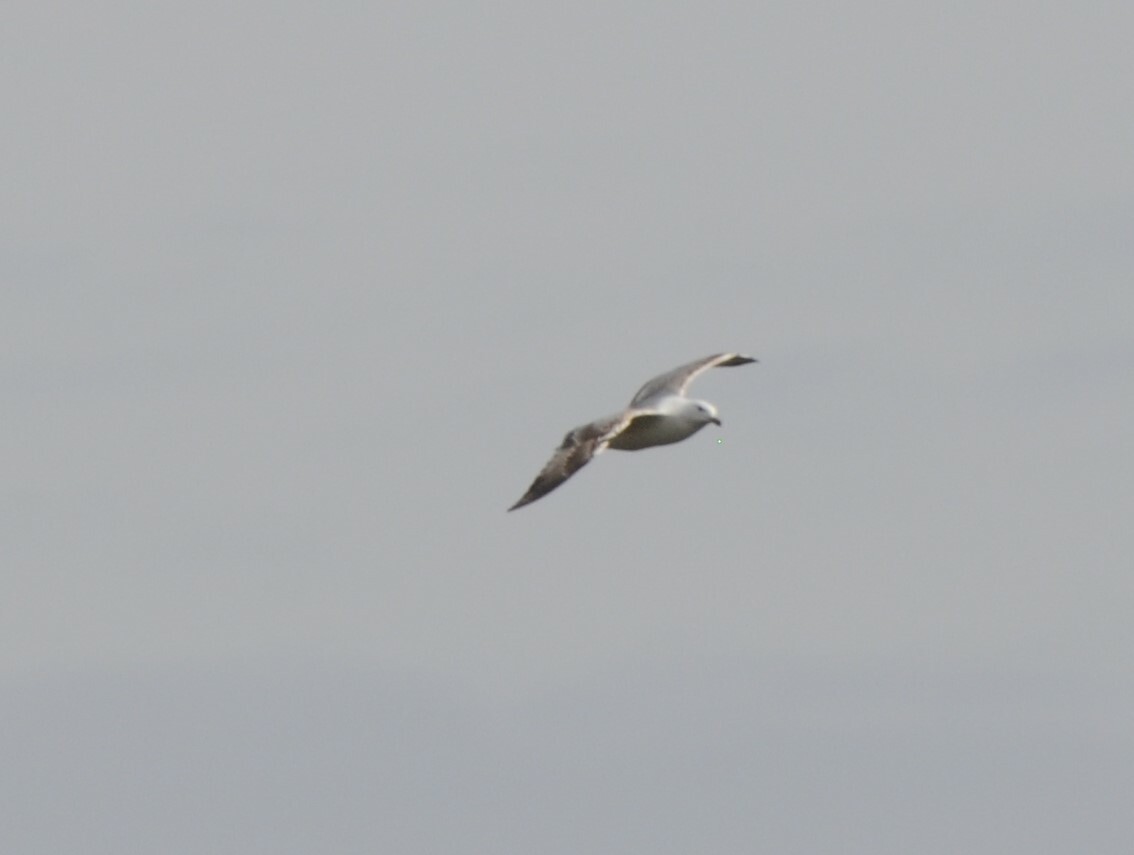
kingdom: Animalia
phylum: Chordata
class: Aves
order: Charadriiformes
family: Laridae
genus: Larus
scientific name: Larus canus
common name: Mew gull
